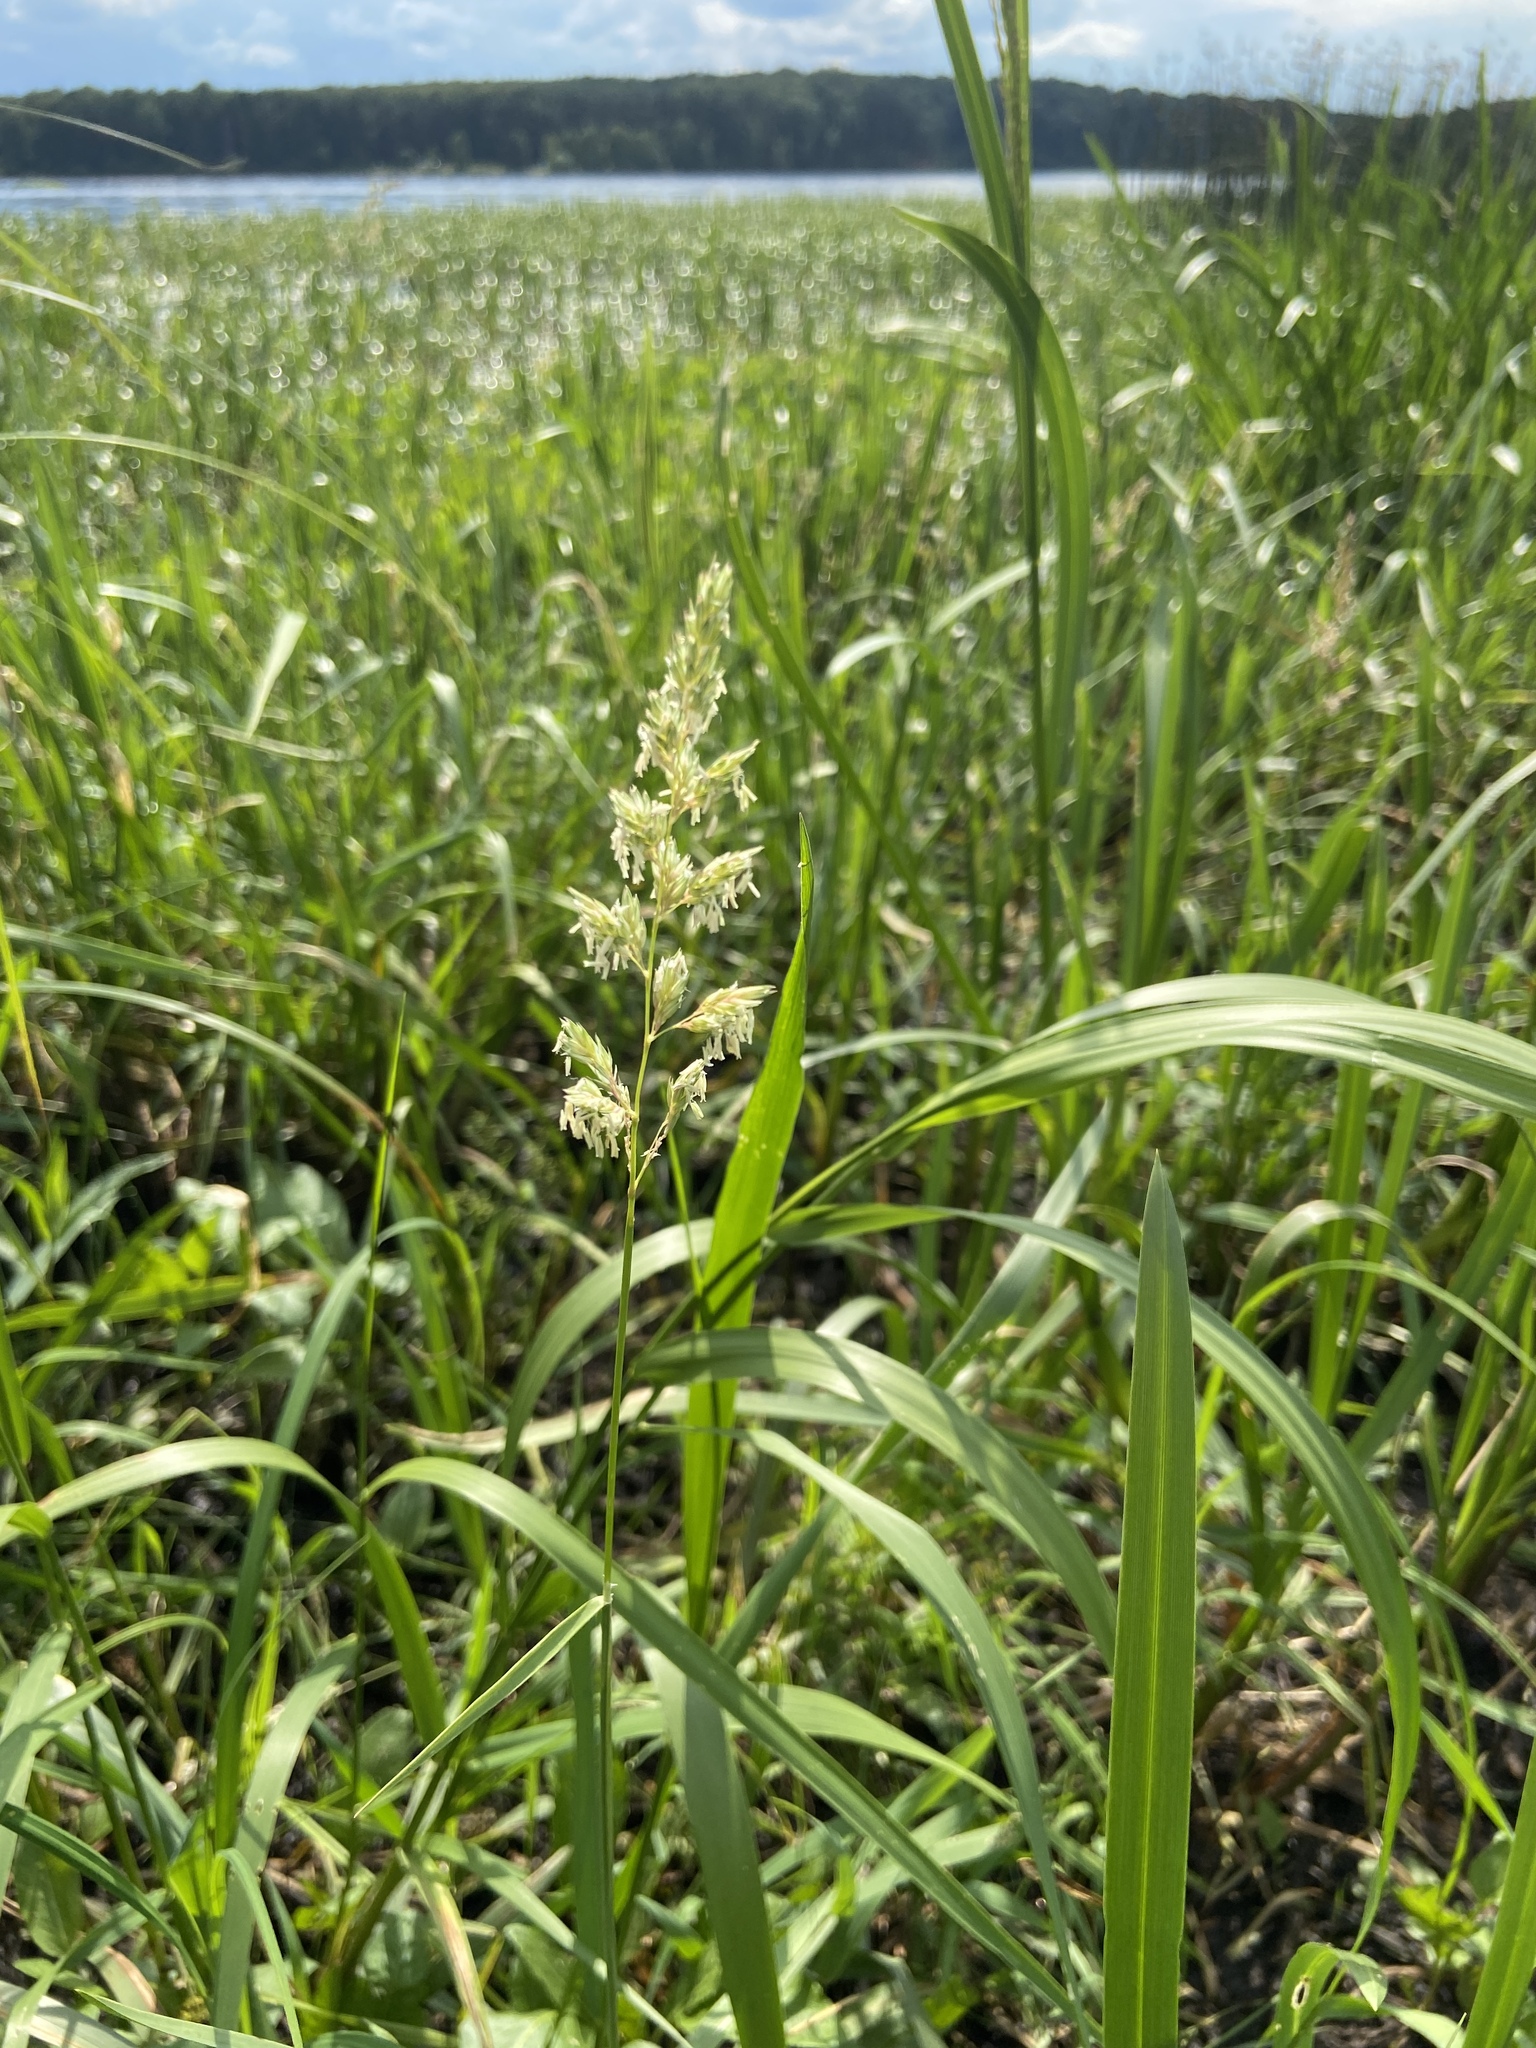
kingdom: Plantae
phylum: Tracheophyta
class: Liliopsida
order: Poales
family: Poaceae
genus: Phalaris
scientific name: Phalaris arundinacea
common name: Reed canary-grass
